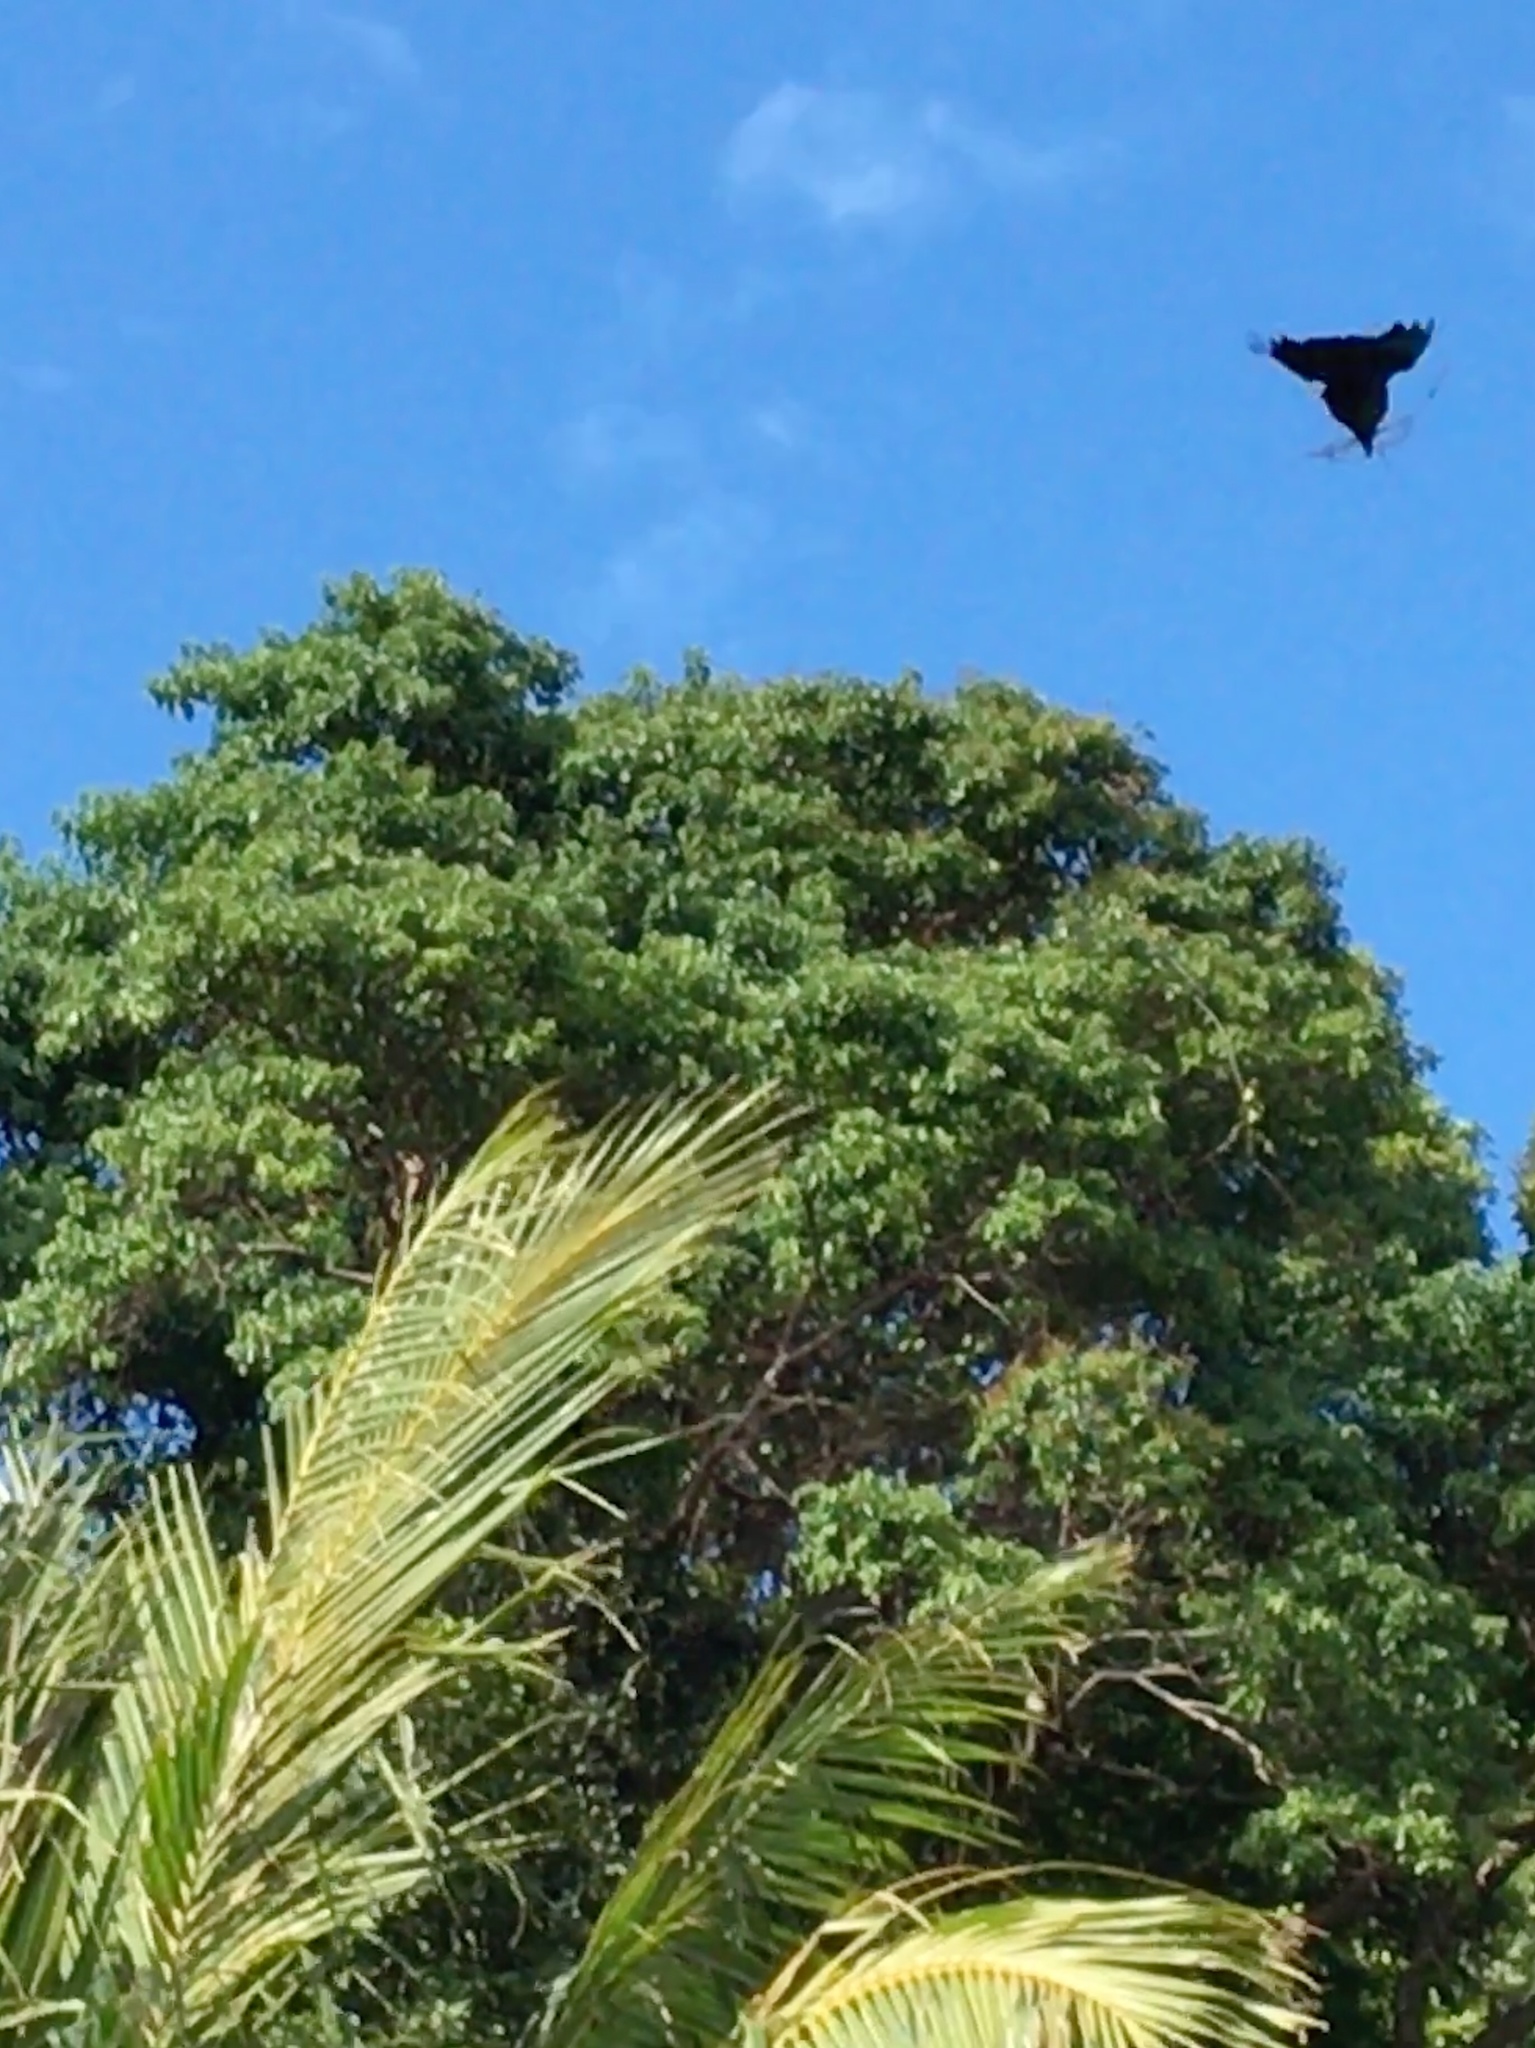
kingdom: Animalia
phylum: Chordata
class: Aves
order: Passeriformes
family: Corvidae
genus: Corvus
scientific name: Corvus macrorhynchos
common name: Large-billed crow
